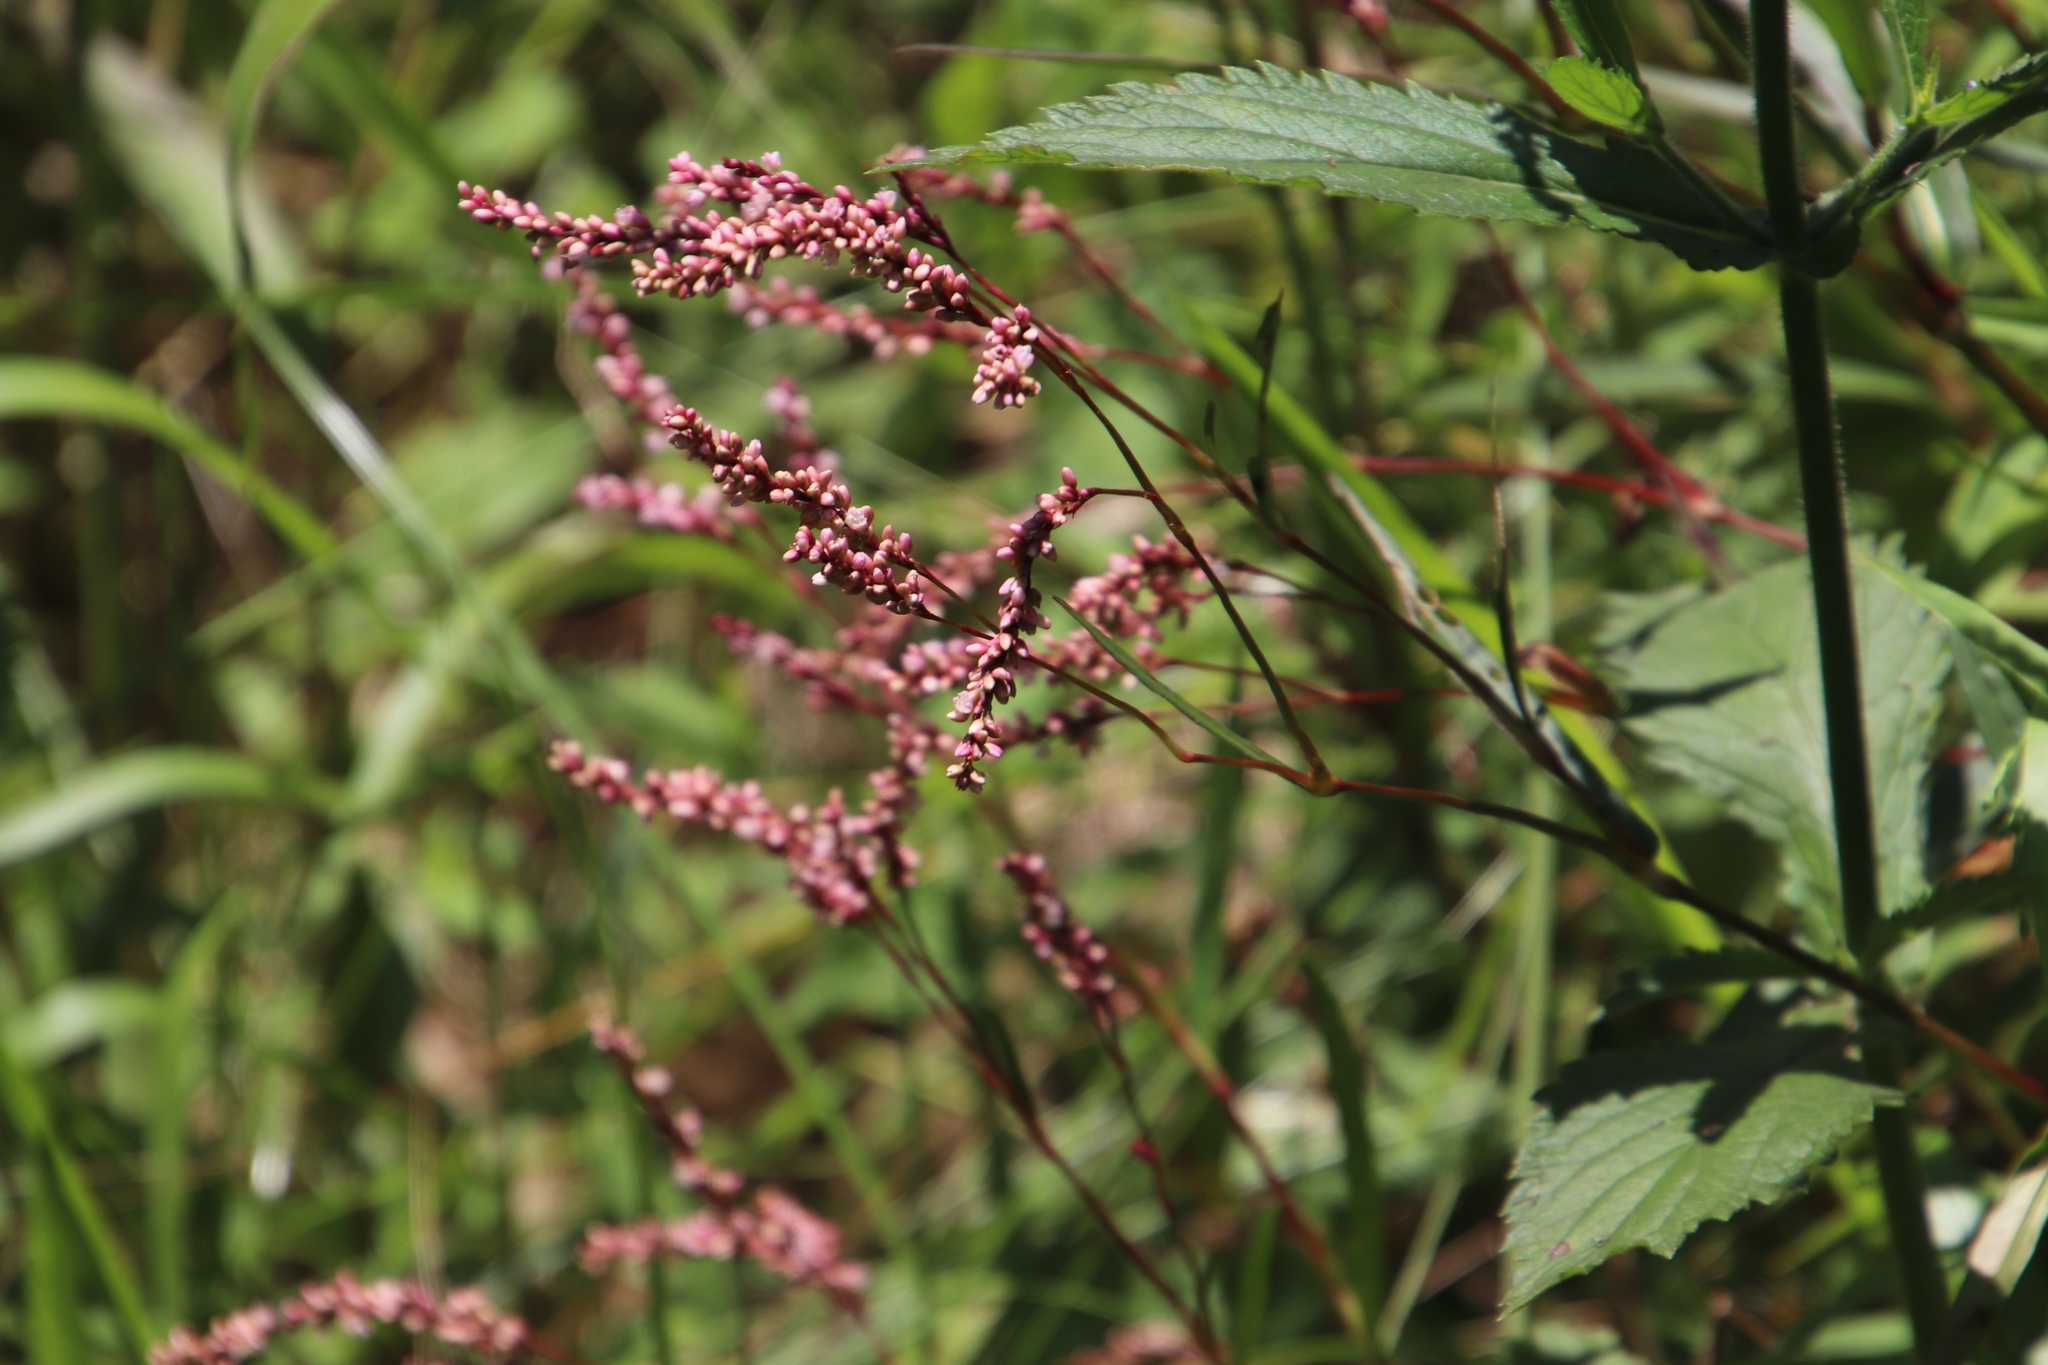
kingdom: Plantae
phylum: Tracheophyta
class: Magnoliopsida
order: Caryophyllales
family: Polygonaceae
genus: Persicaria
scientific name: Persicaria decipiens
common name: Willow-weed
